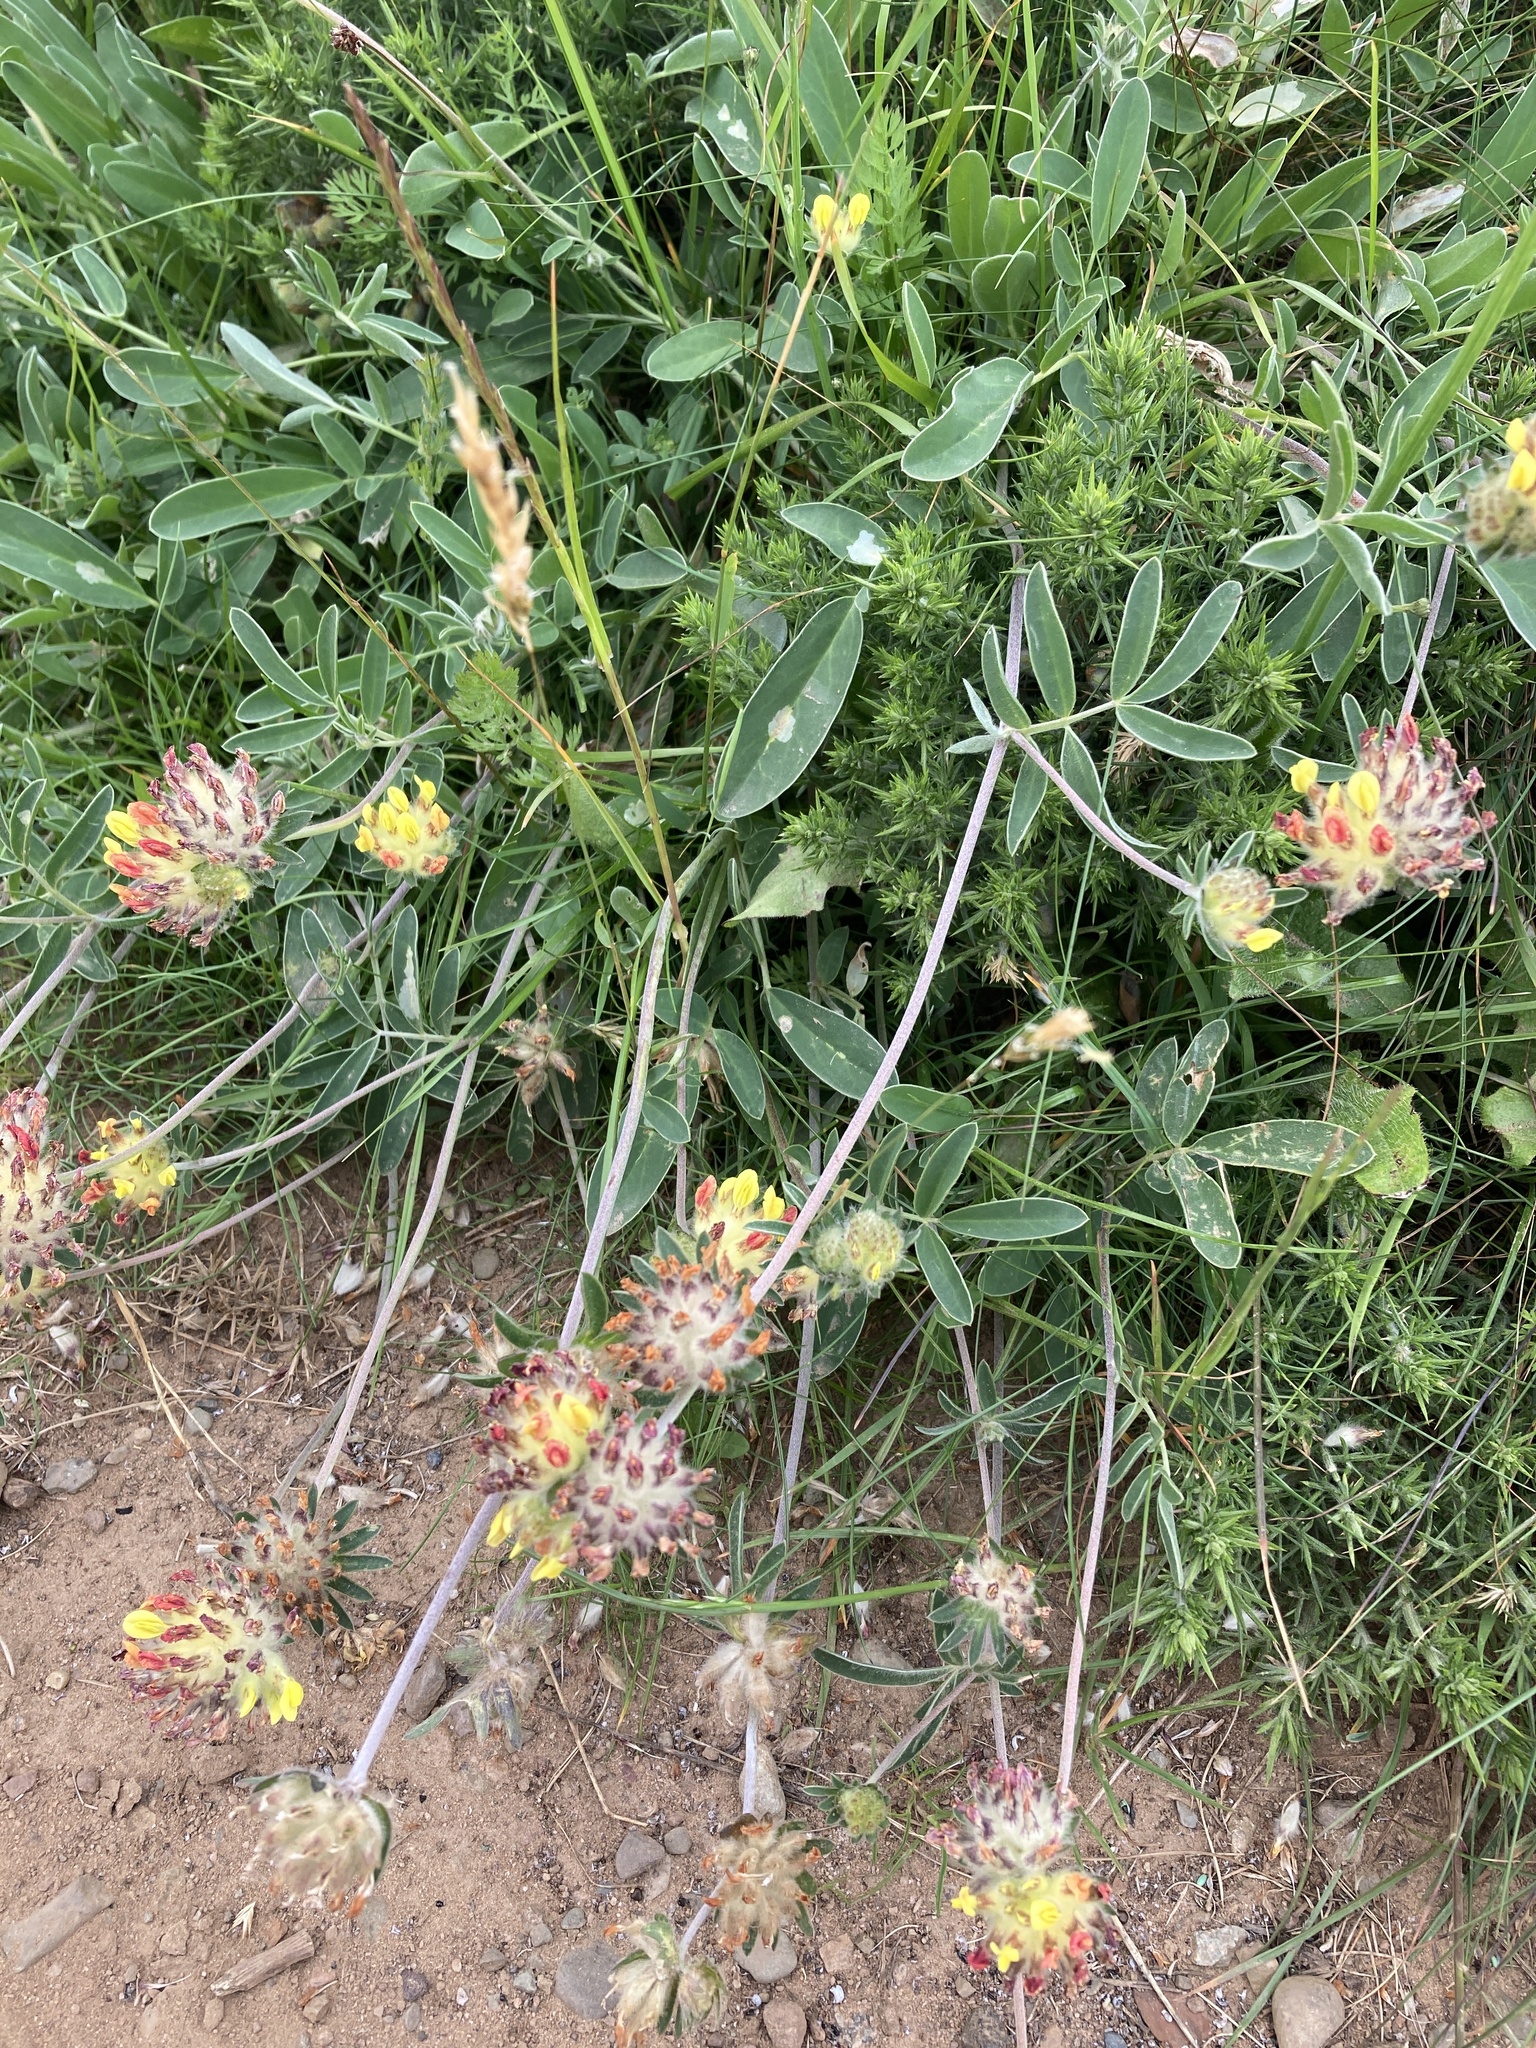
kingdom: Plantae
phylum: Tracheophyta
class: Magnoliopsida
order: Fabales
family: Fabaceae
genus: Anthyllis
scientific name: Anthyllis vulneraria
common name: Kidney vetch
